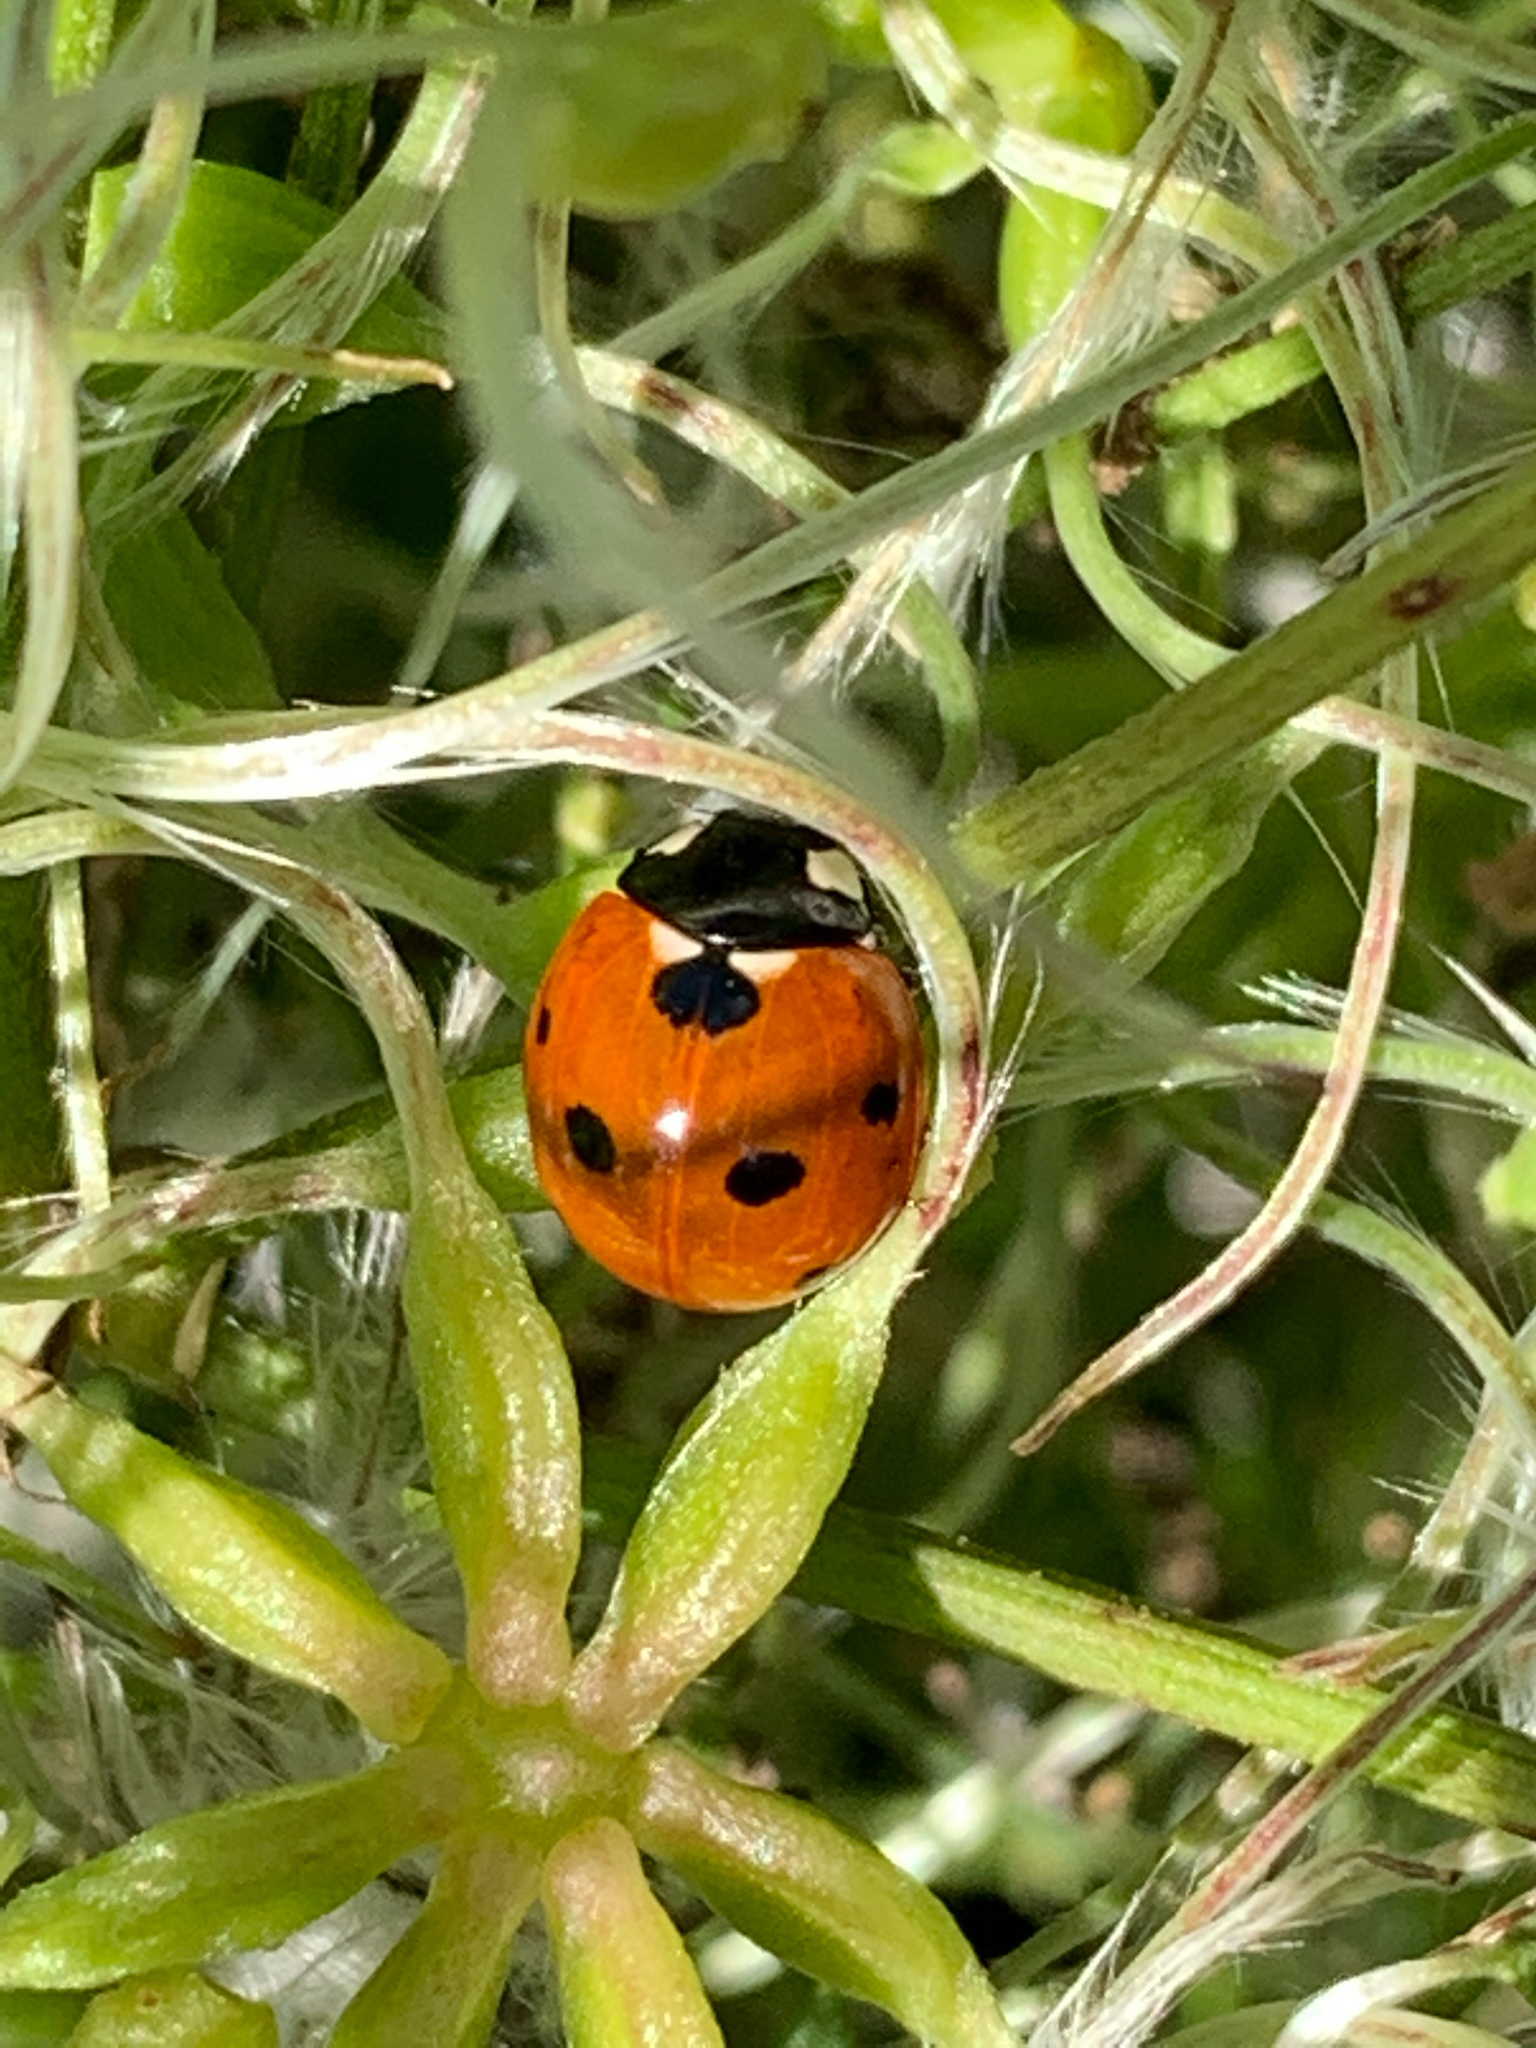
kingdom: Animalia
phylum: Arthropoda
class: Insecta
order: Coleoptera
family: Coccinellidae
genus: Coccinella
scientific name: Coccinella septempunctata
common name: Sevenspotted lady beetle
